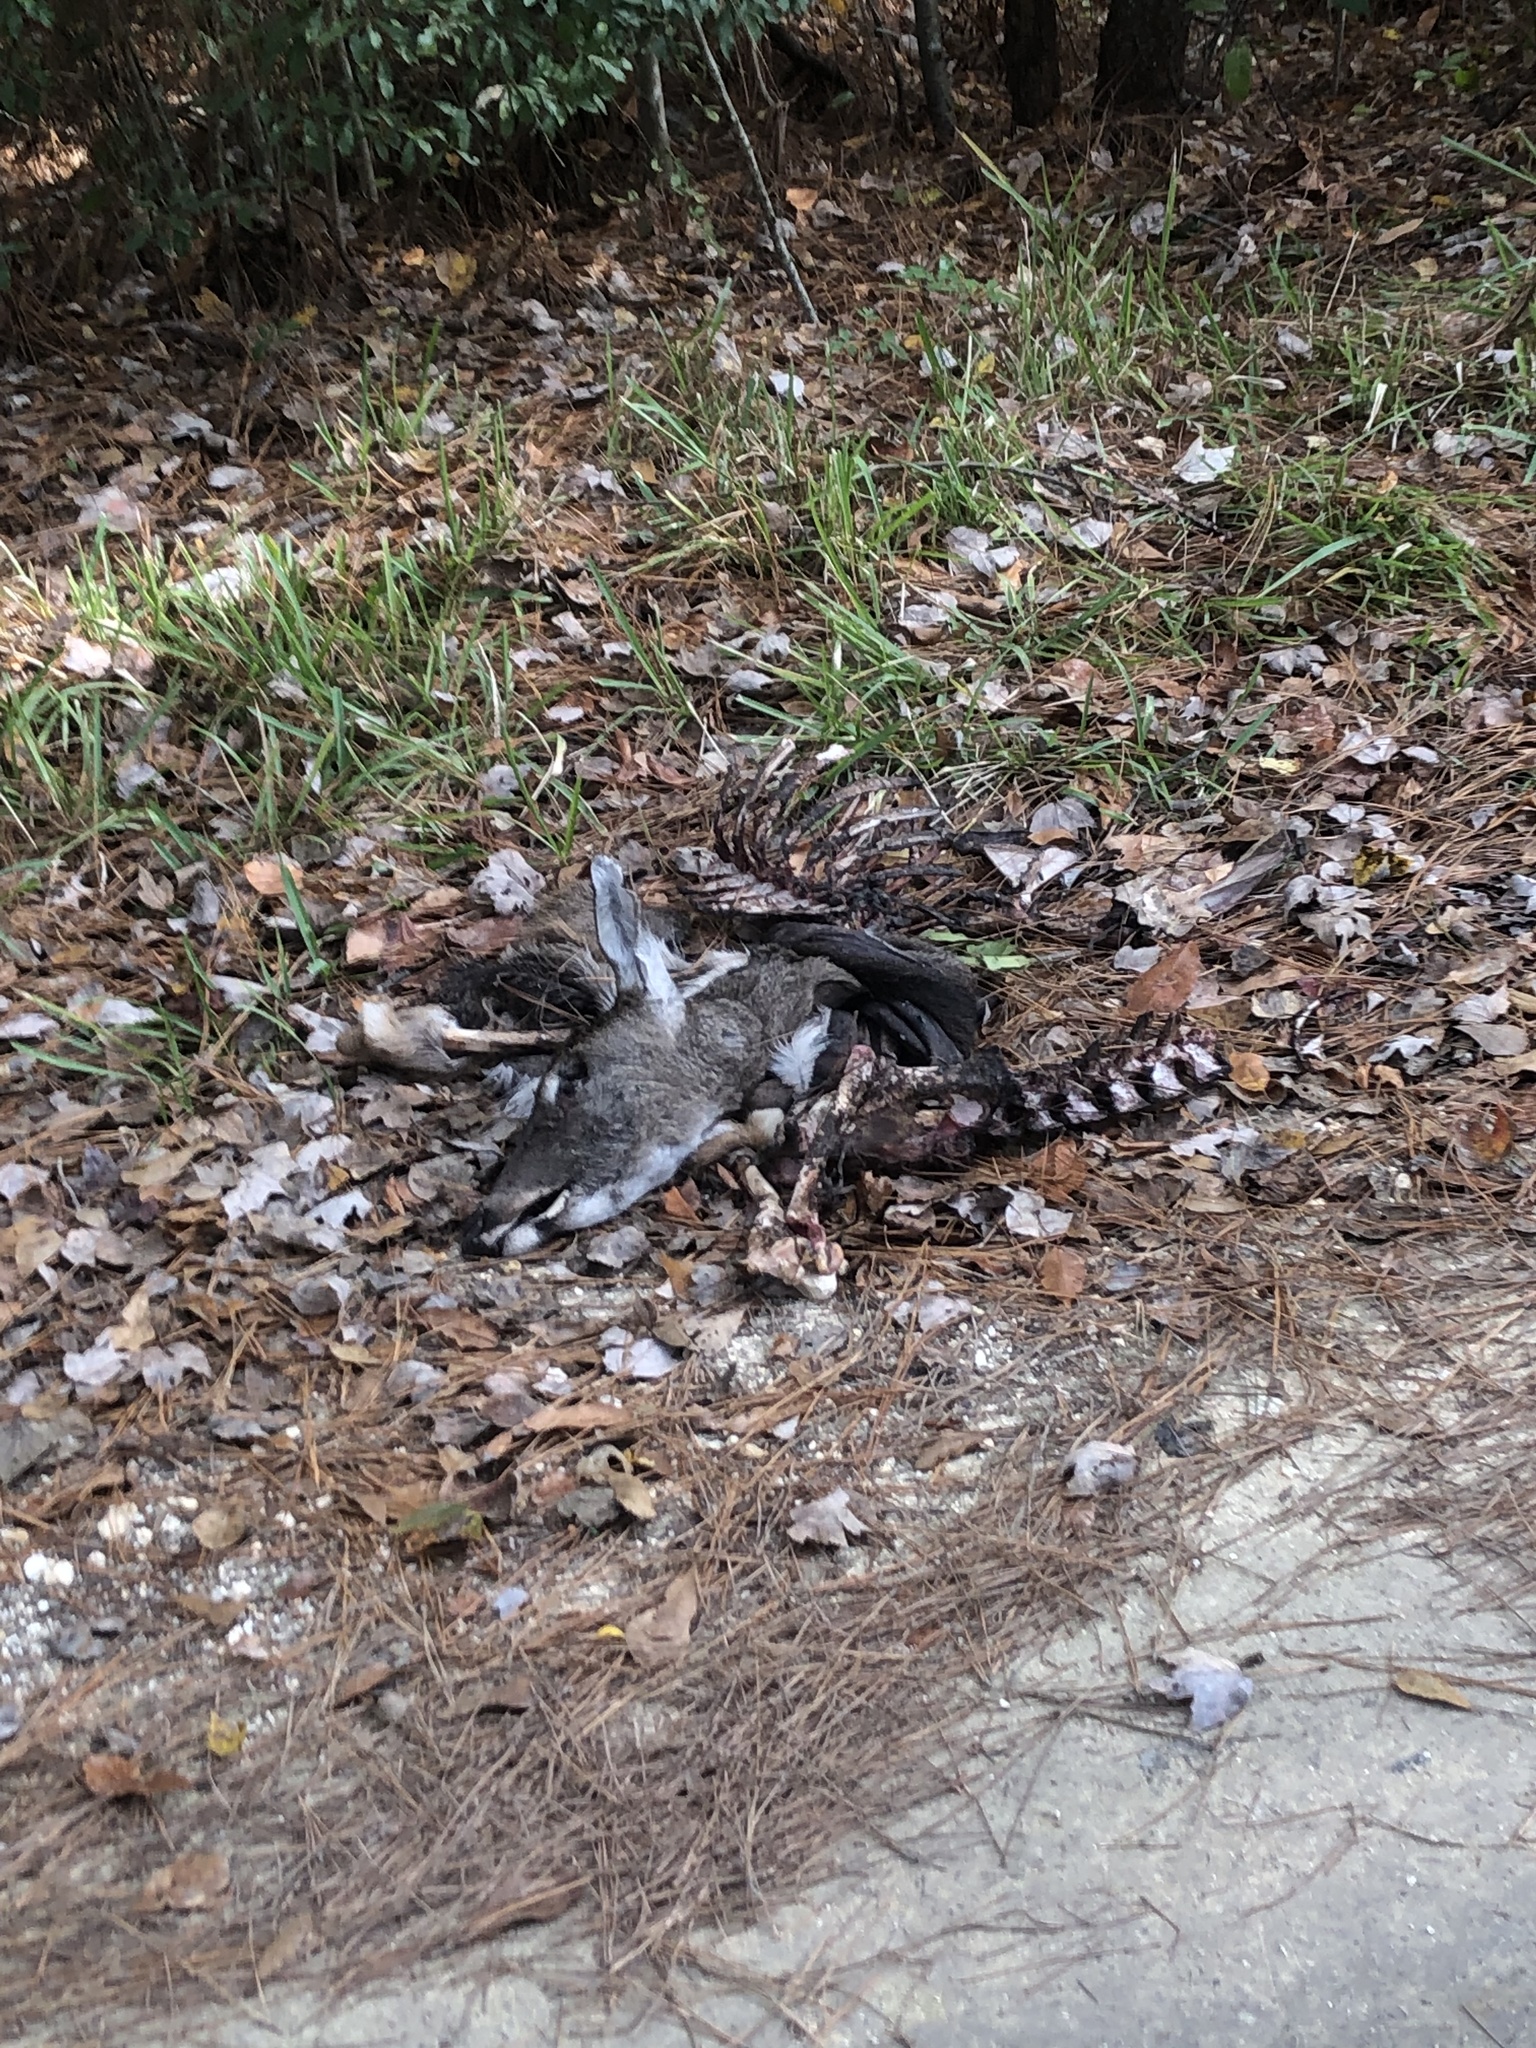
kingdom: Animalia
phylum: Chordata
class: Mammalia
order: Artiodactyla
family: Cervidae
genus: Odocoileus
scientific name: Odocoileus virginianus
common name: White-tailed deer
